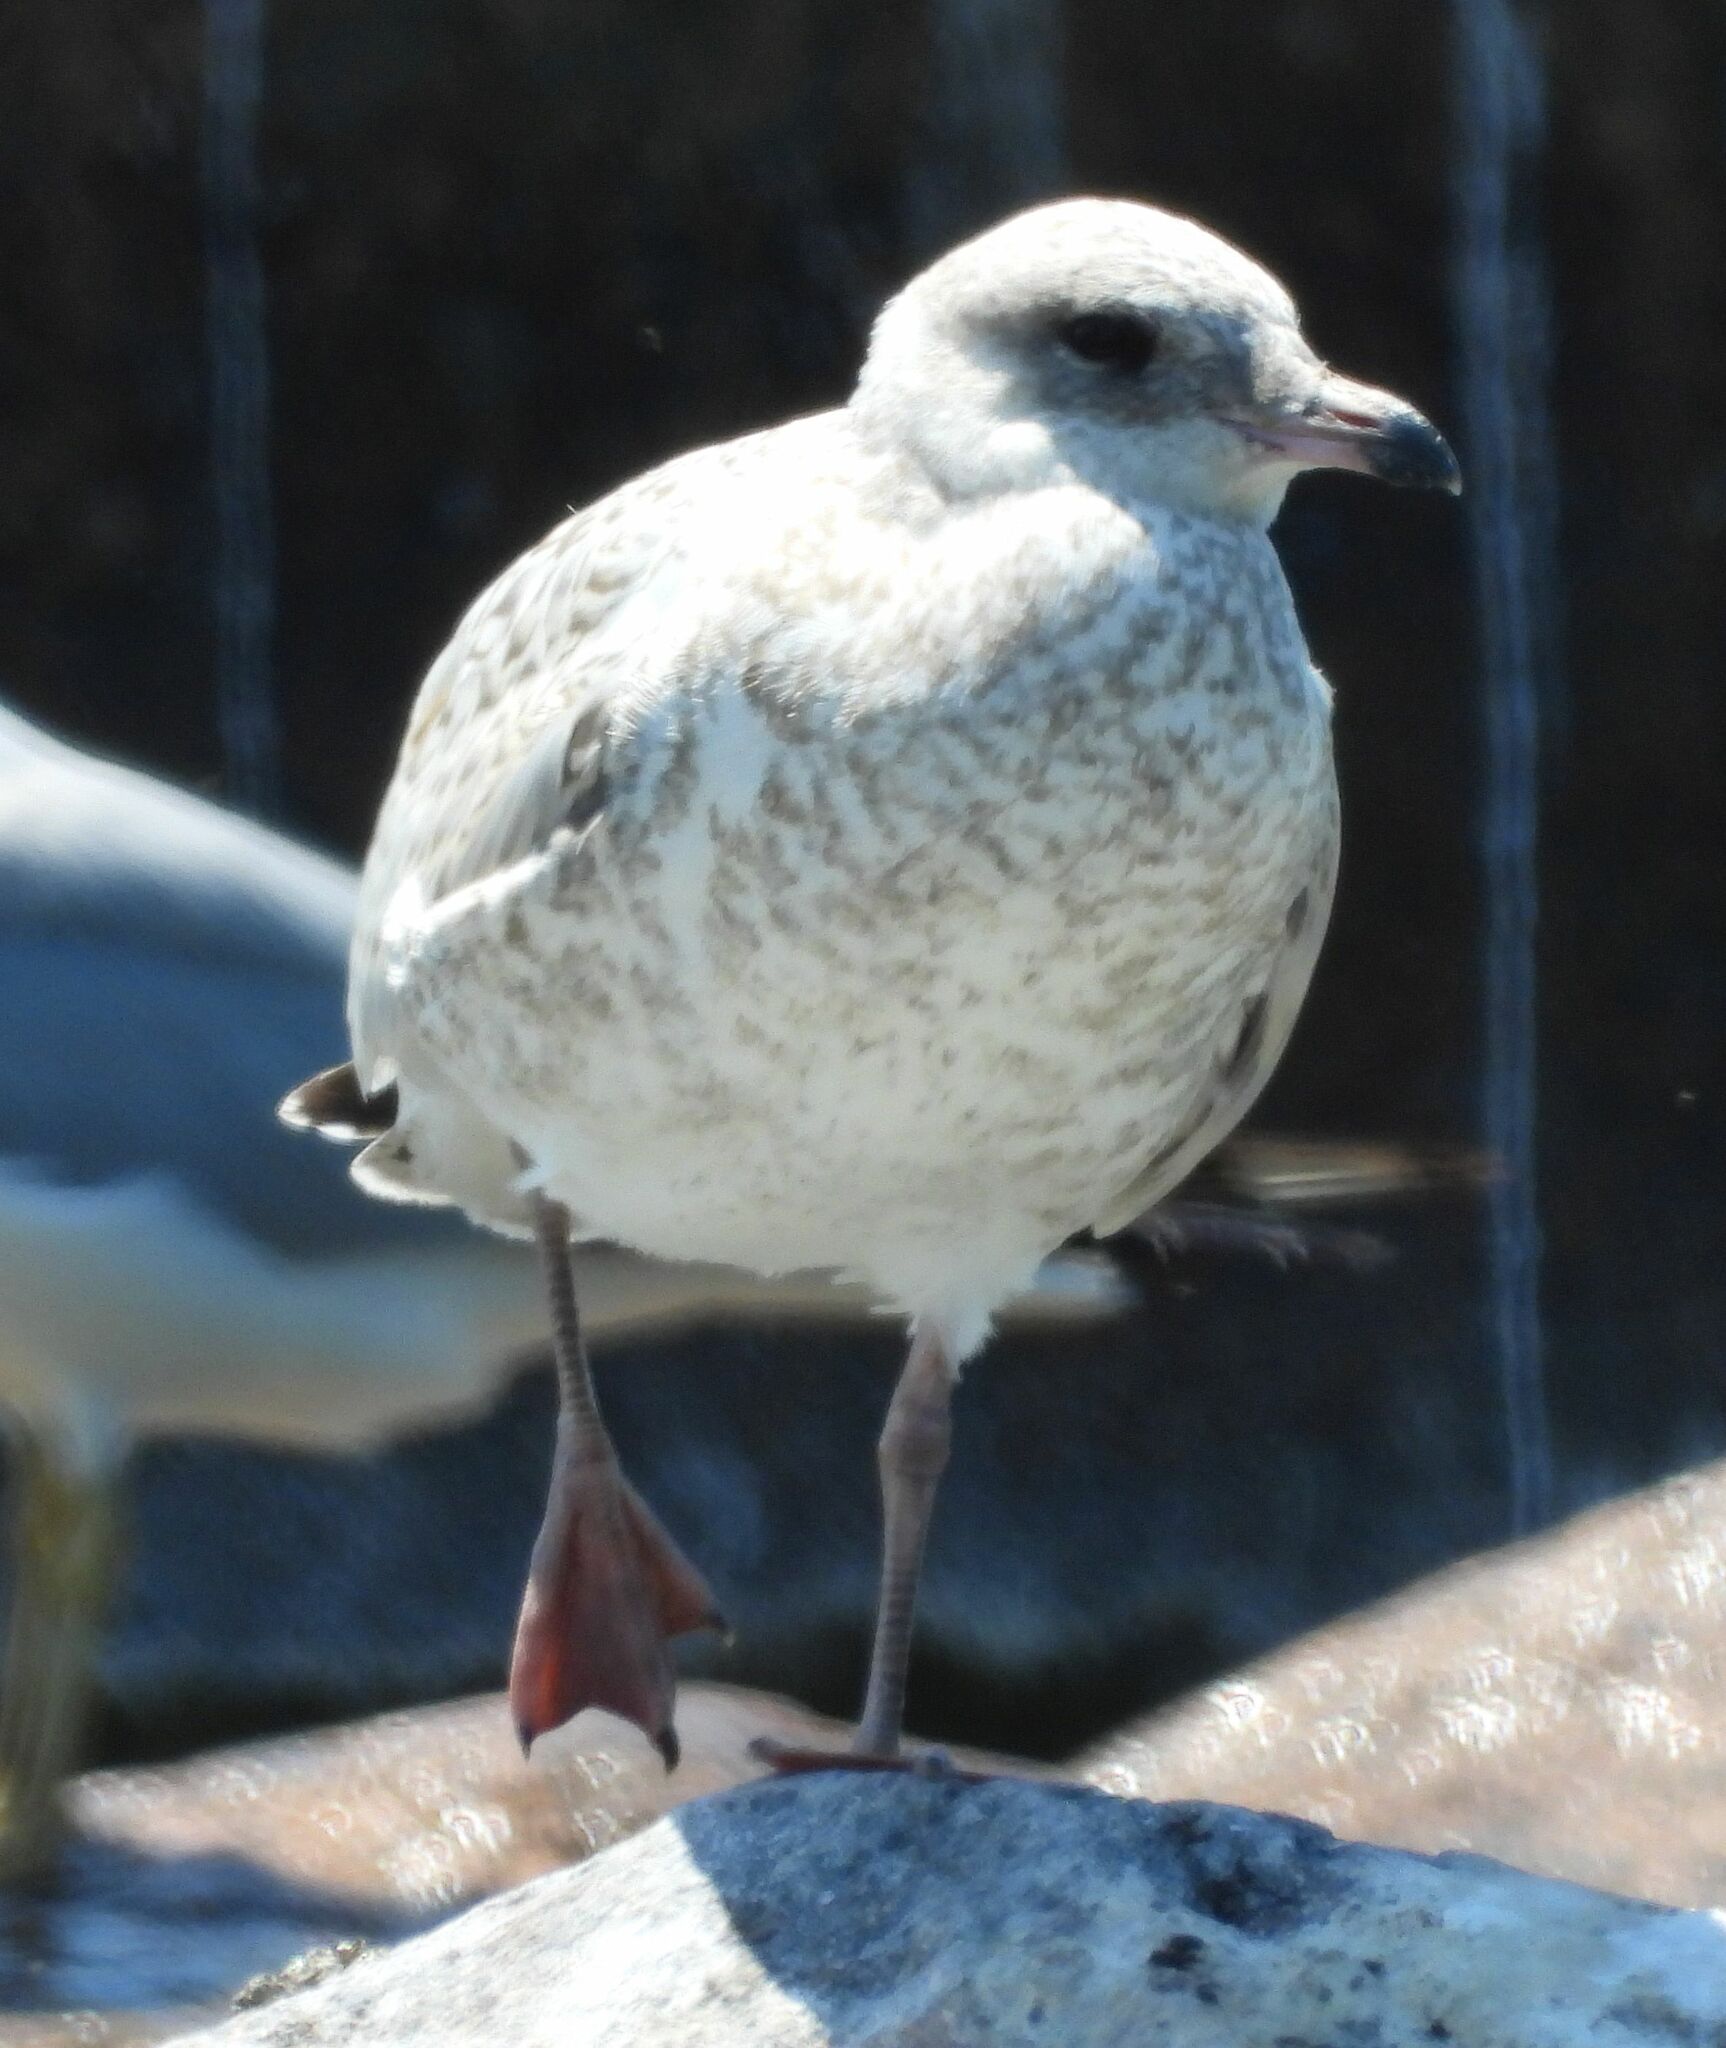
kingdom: Animalia
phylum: Chordata
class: Aves
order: Charadriiformes
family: Laridae
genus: Larus
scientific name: Larus delawarensis
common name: Ring-billed gull
